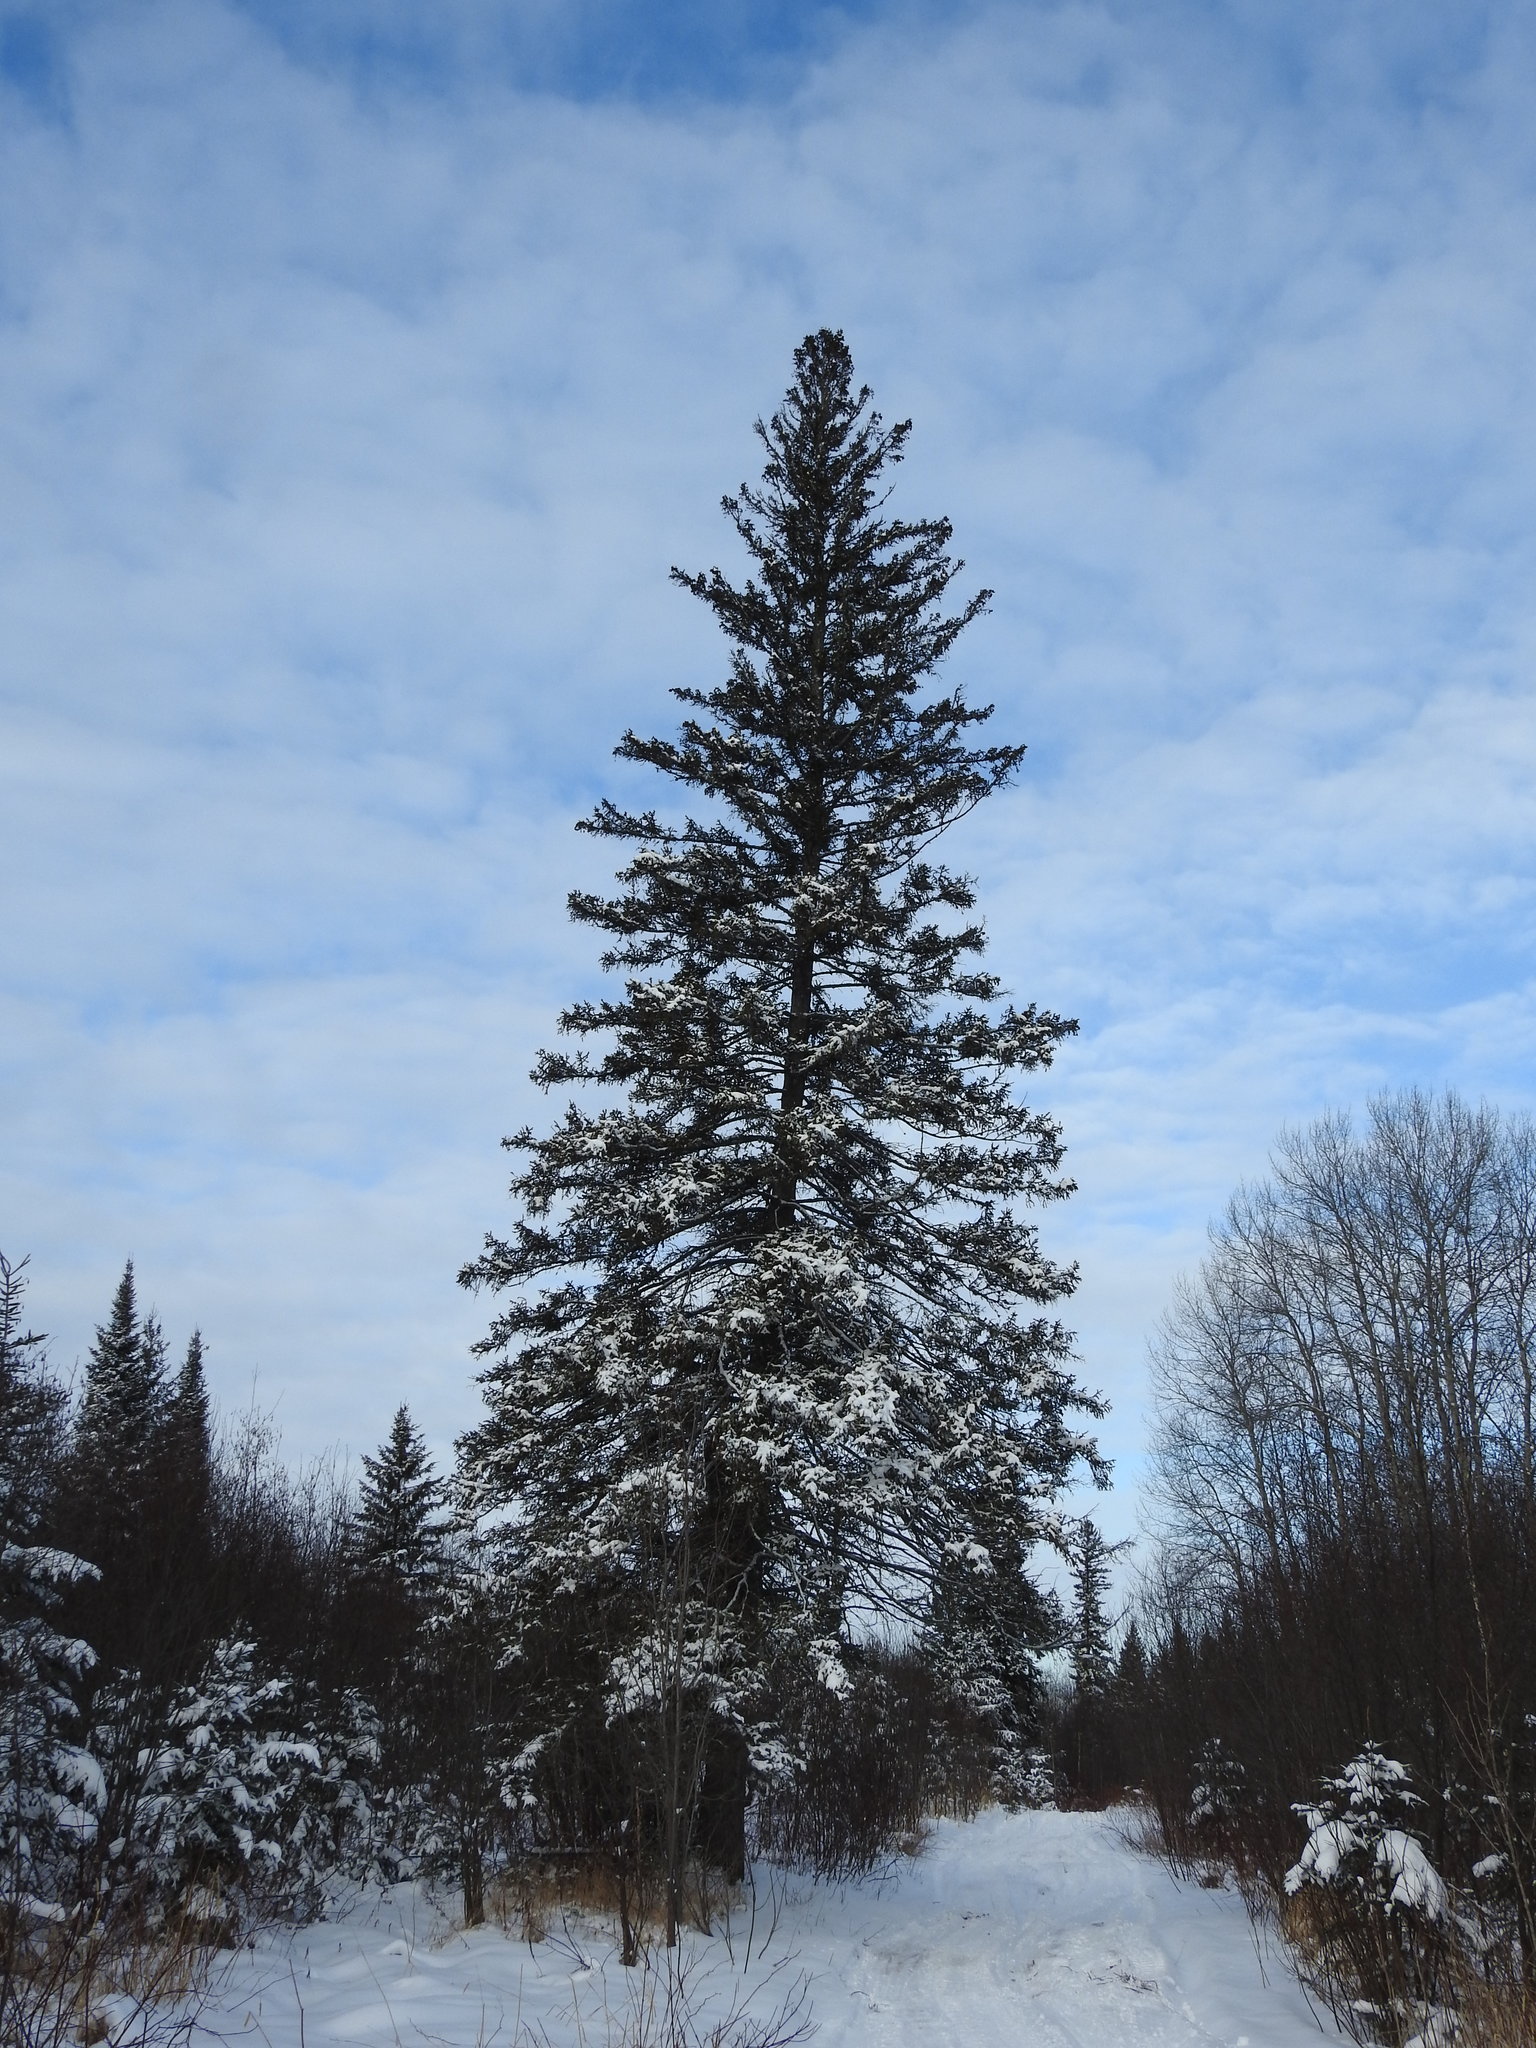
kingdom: Plantae
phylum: Tracheophyta
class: Pinopsida
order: Pinales
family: Pinaceae
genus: Picea
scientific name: Picea glauca
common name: White spruce
